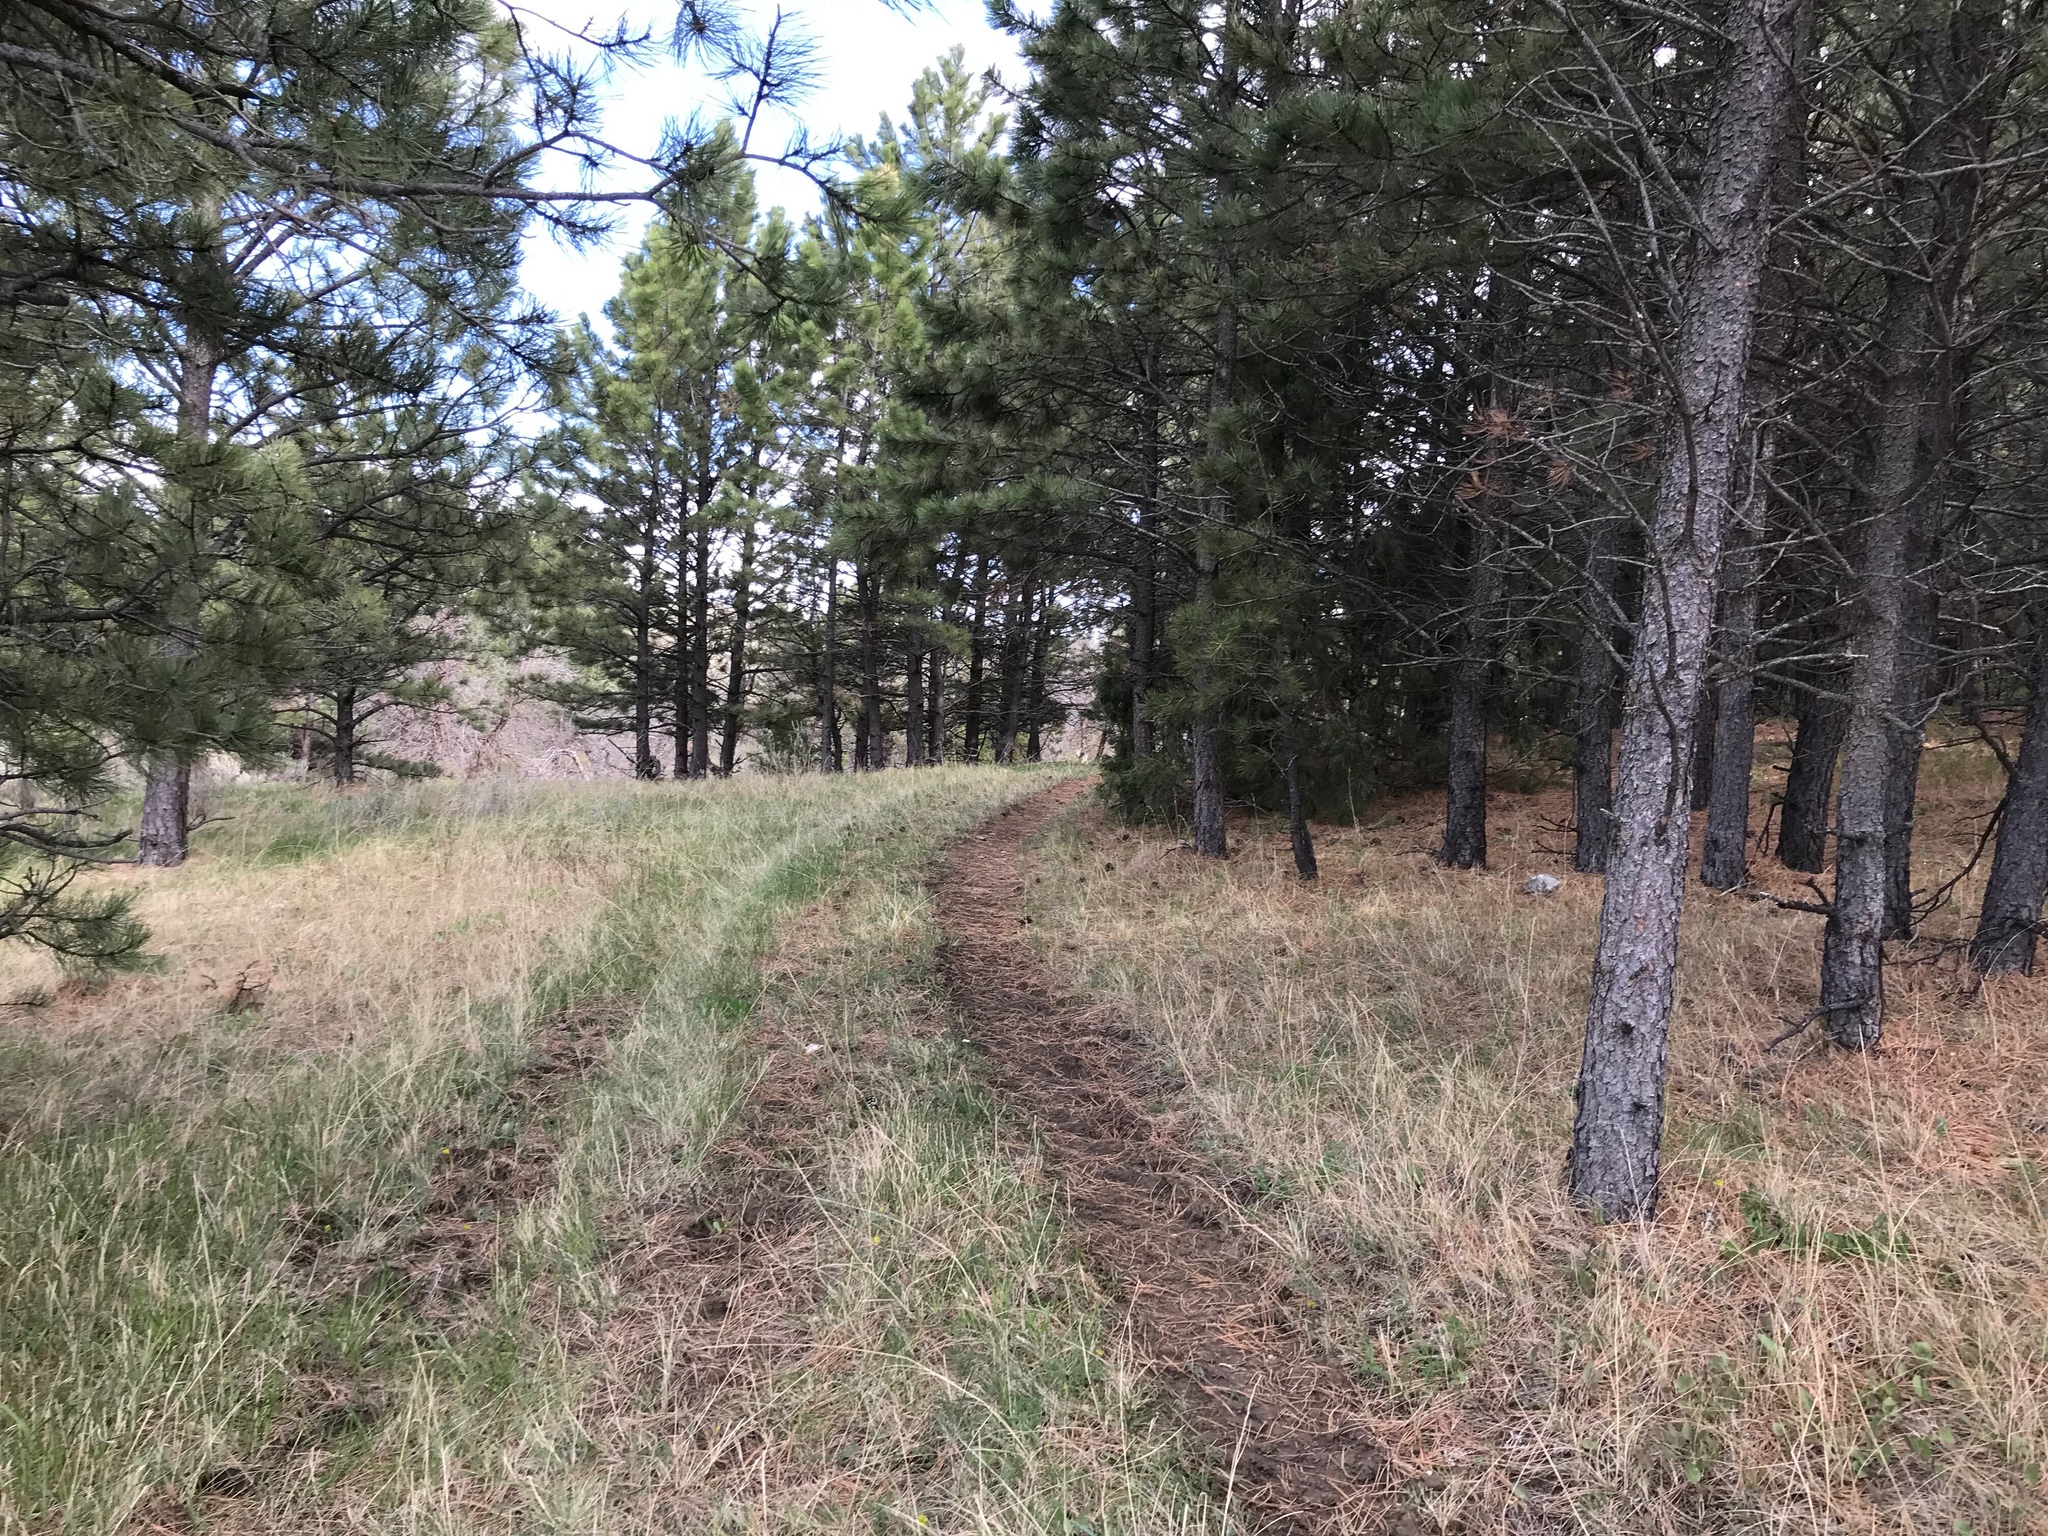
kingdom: Plantae
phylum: Tracheophyta
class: Pinopsida
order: Pinales
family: Pinaceae
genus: Pinus
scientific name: Pinus ponderosa
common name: Western yellow-pine
